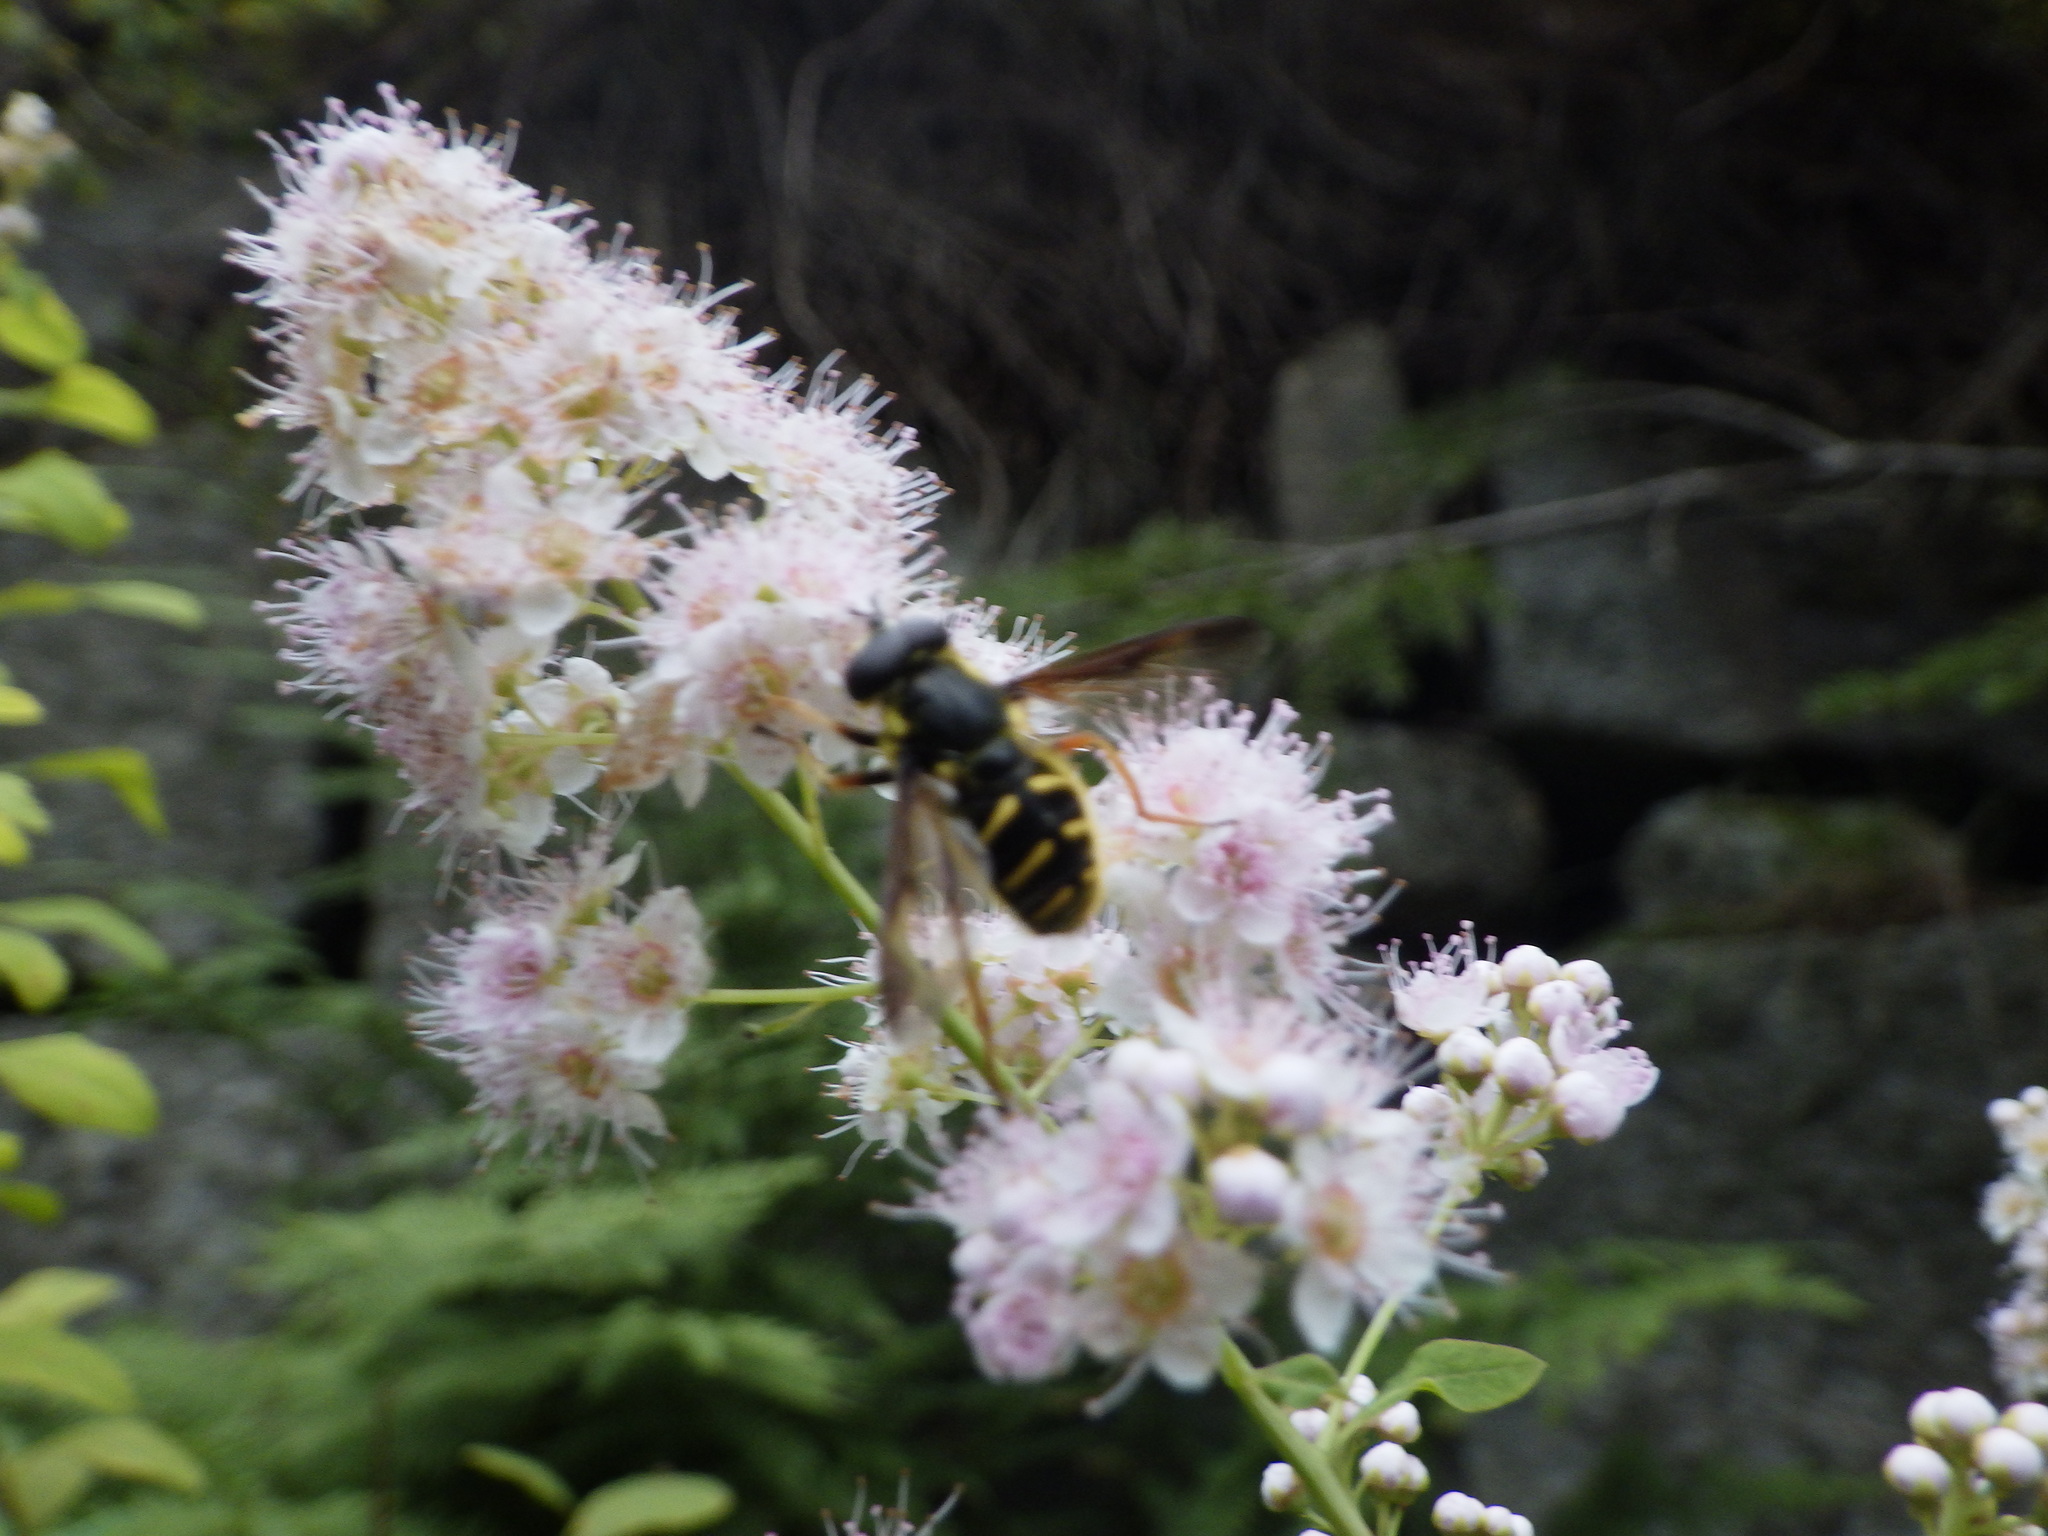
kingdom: Animalia
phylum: Arthropoda
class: Insecta
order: Diptera
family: Syrphidae
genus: Sericomyia
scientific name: Sericomyia chrysotoxoides
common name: Oblique-banded pond fly
